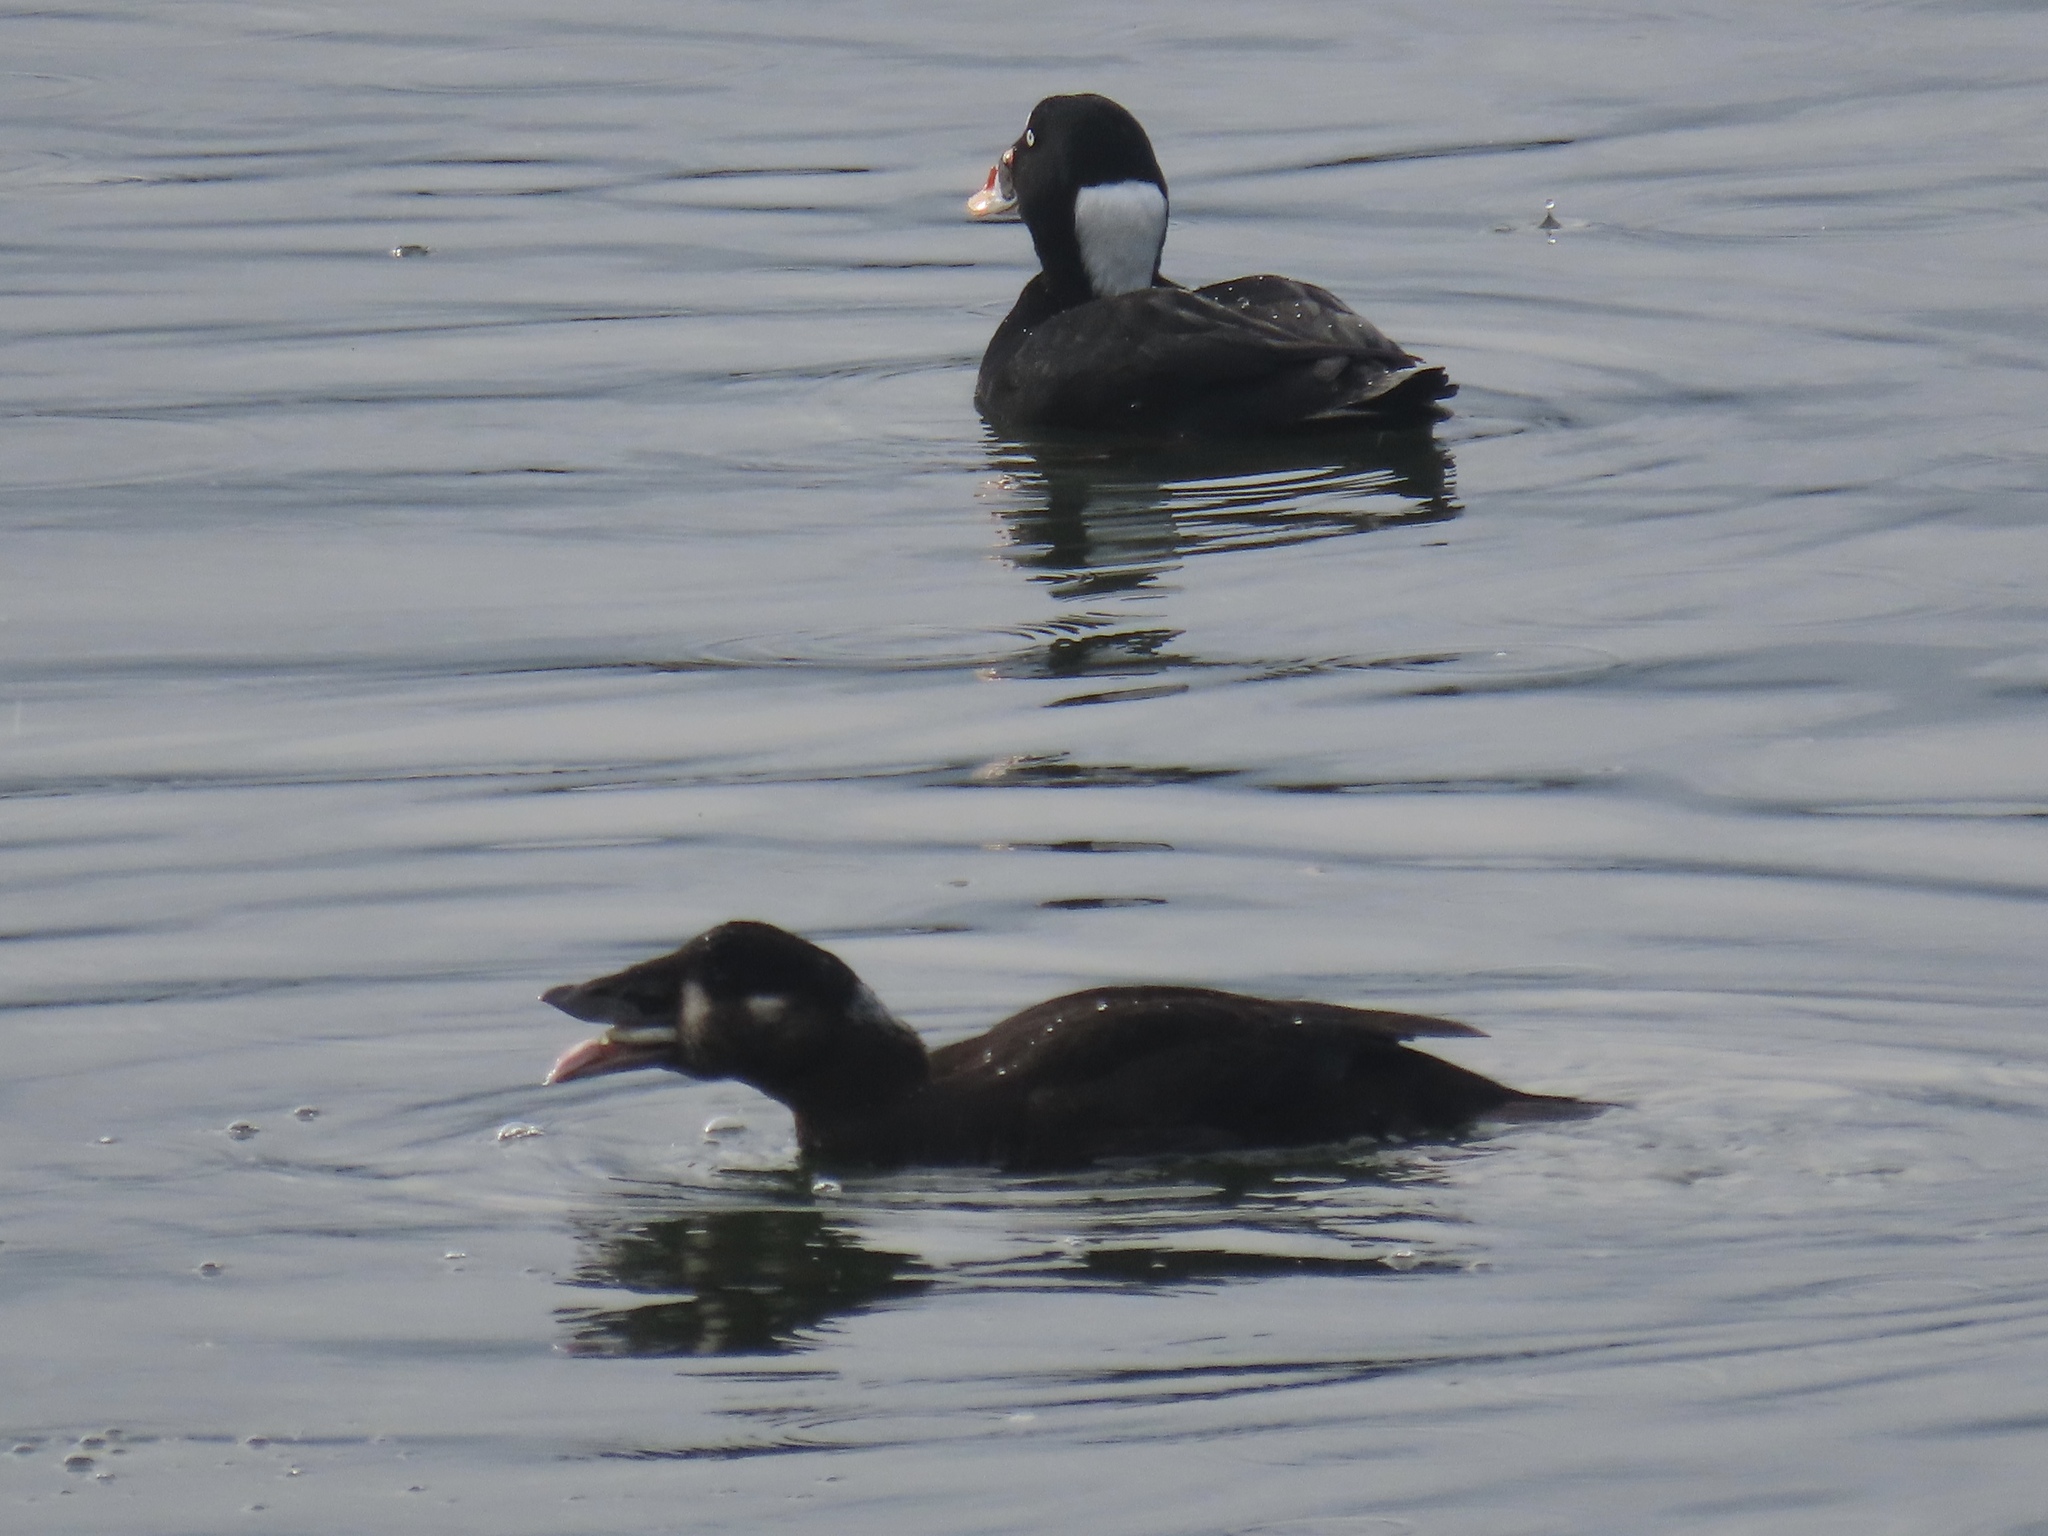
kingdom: Animalia
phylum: Chordata
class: Aves
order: Anseriformes
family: Anatidae
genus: Melanitta
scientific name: Melanitta perspicillata
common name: Surf scoter
